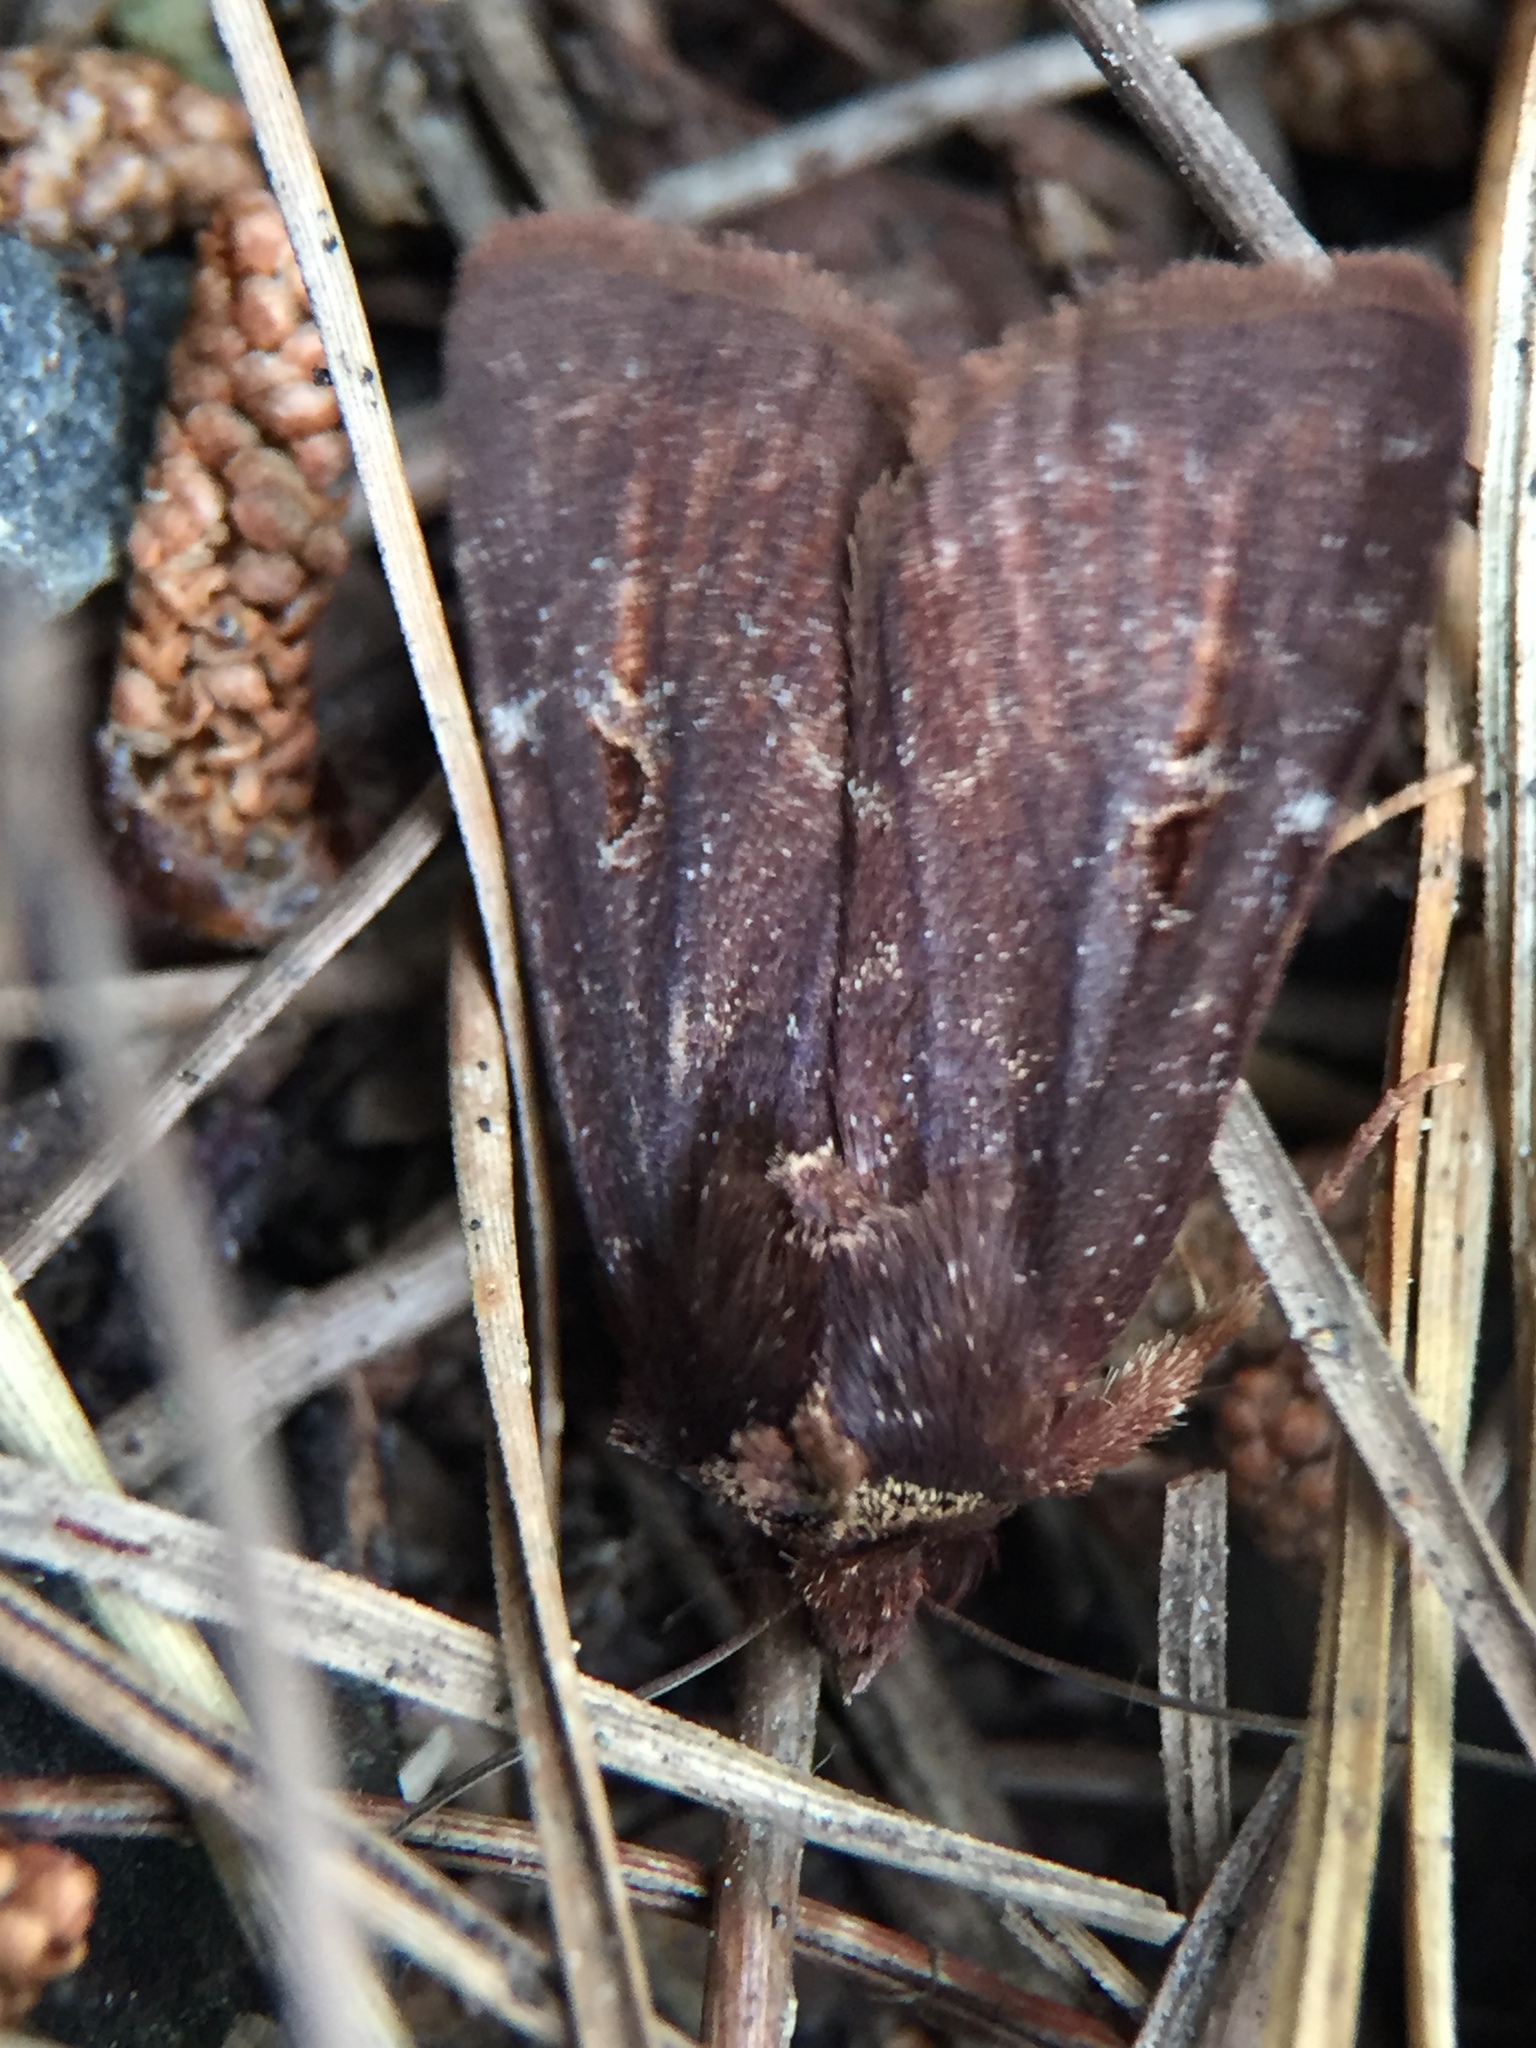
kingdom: Animalia
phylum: Arthropoda
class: Insecta
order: Lepidoptera
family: Noctuidae
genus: Austramathes
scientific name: Austramathes purpurea
